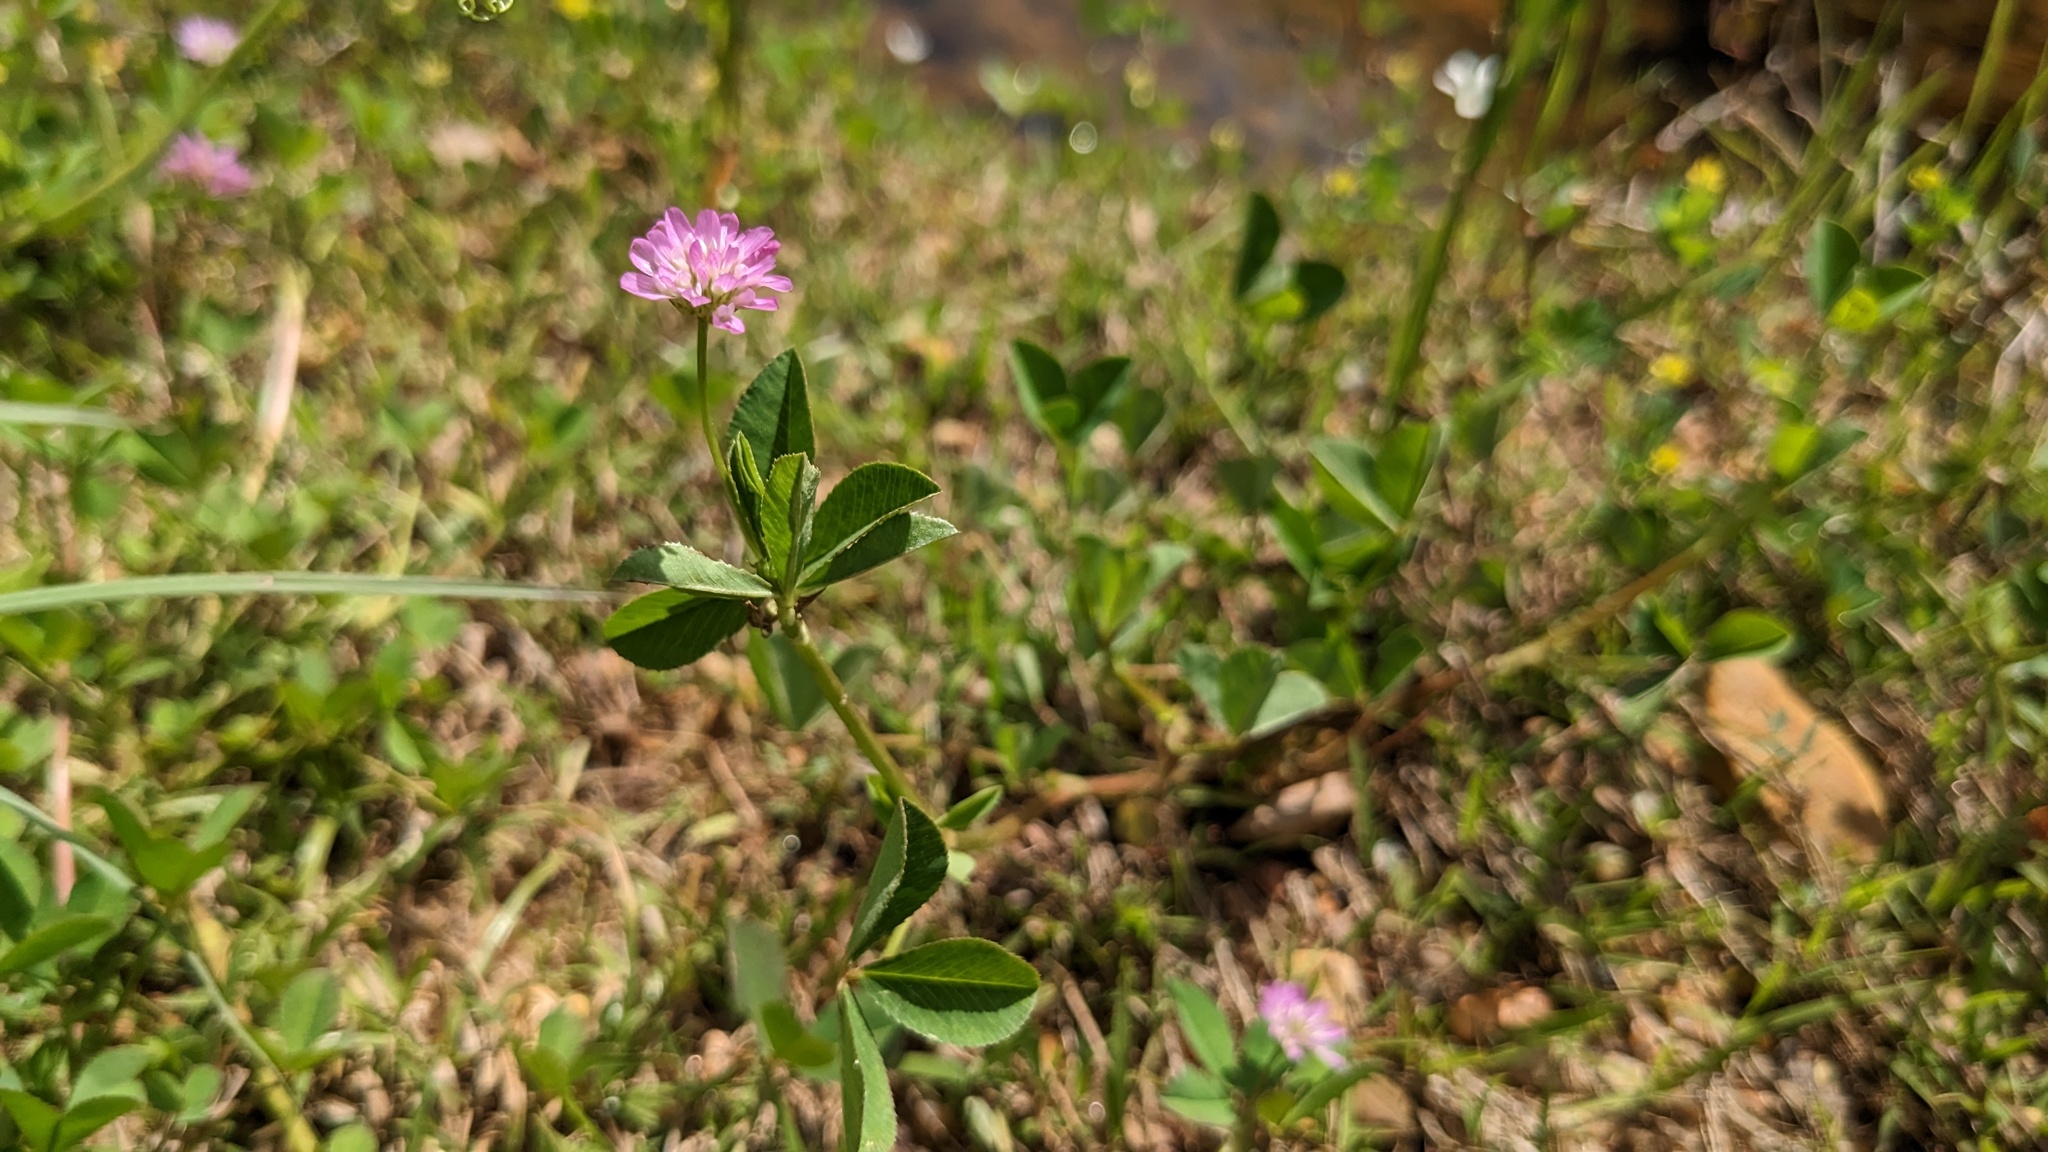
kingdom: Plantae
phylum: Tracheophyta
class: Magnoliopsida
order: Fabales
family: Fabaceae
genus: Trifolium
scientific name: Trifolium resupinatum
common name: Reversed clover
